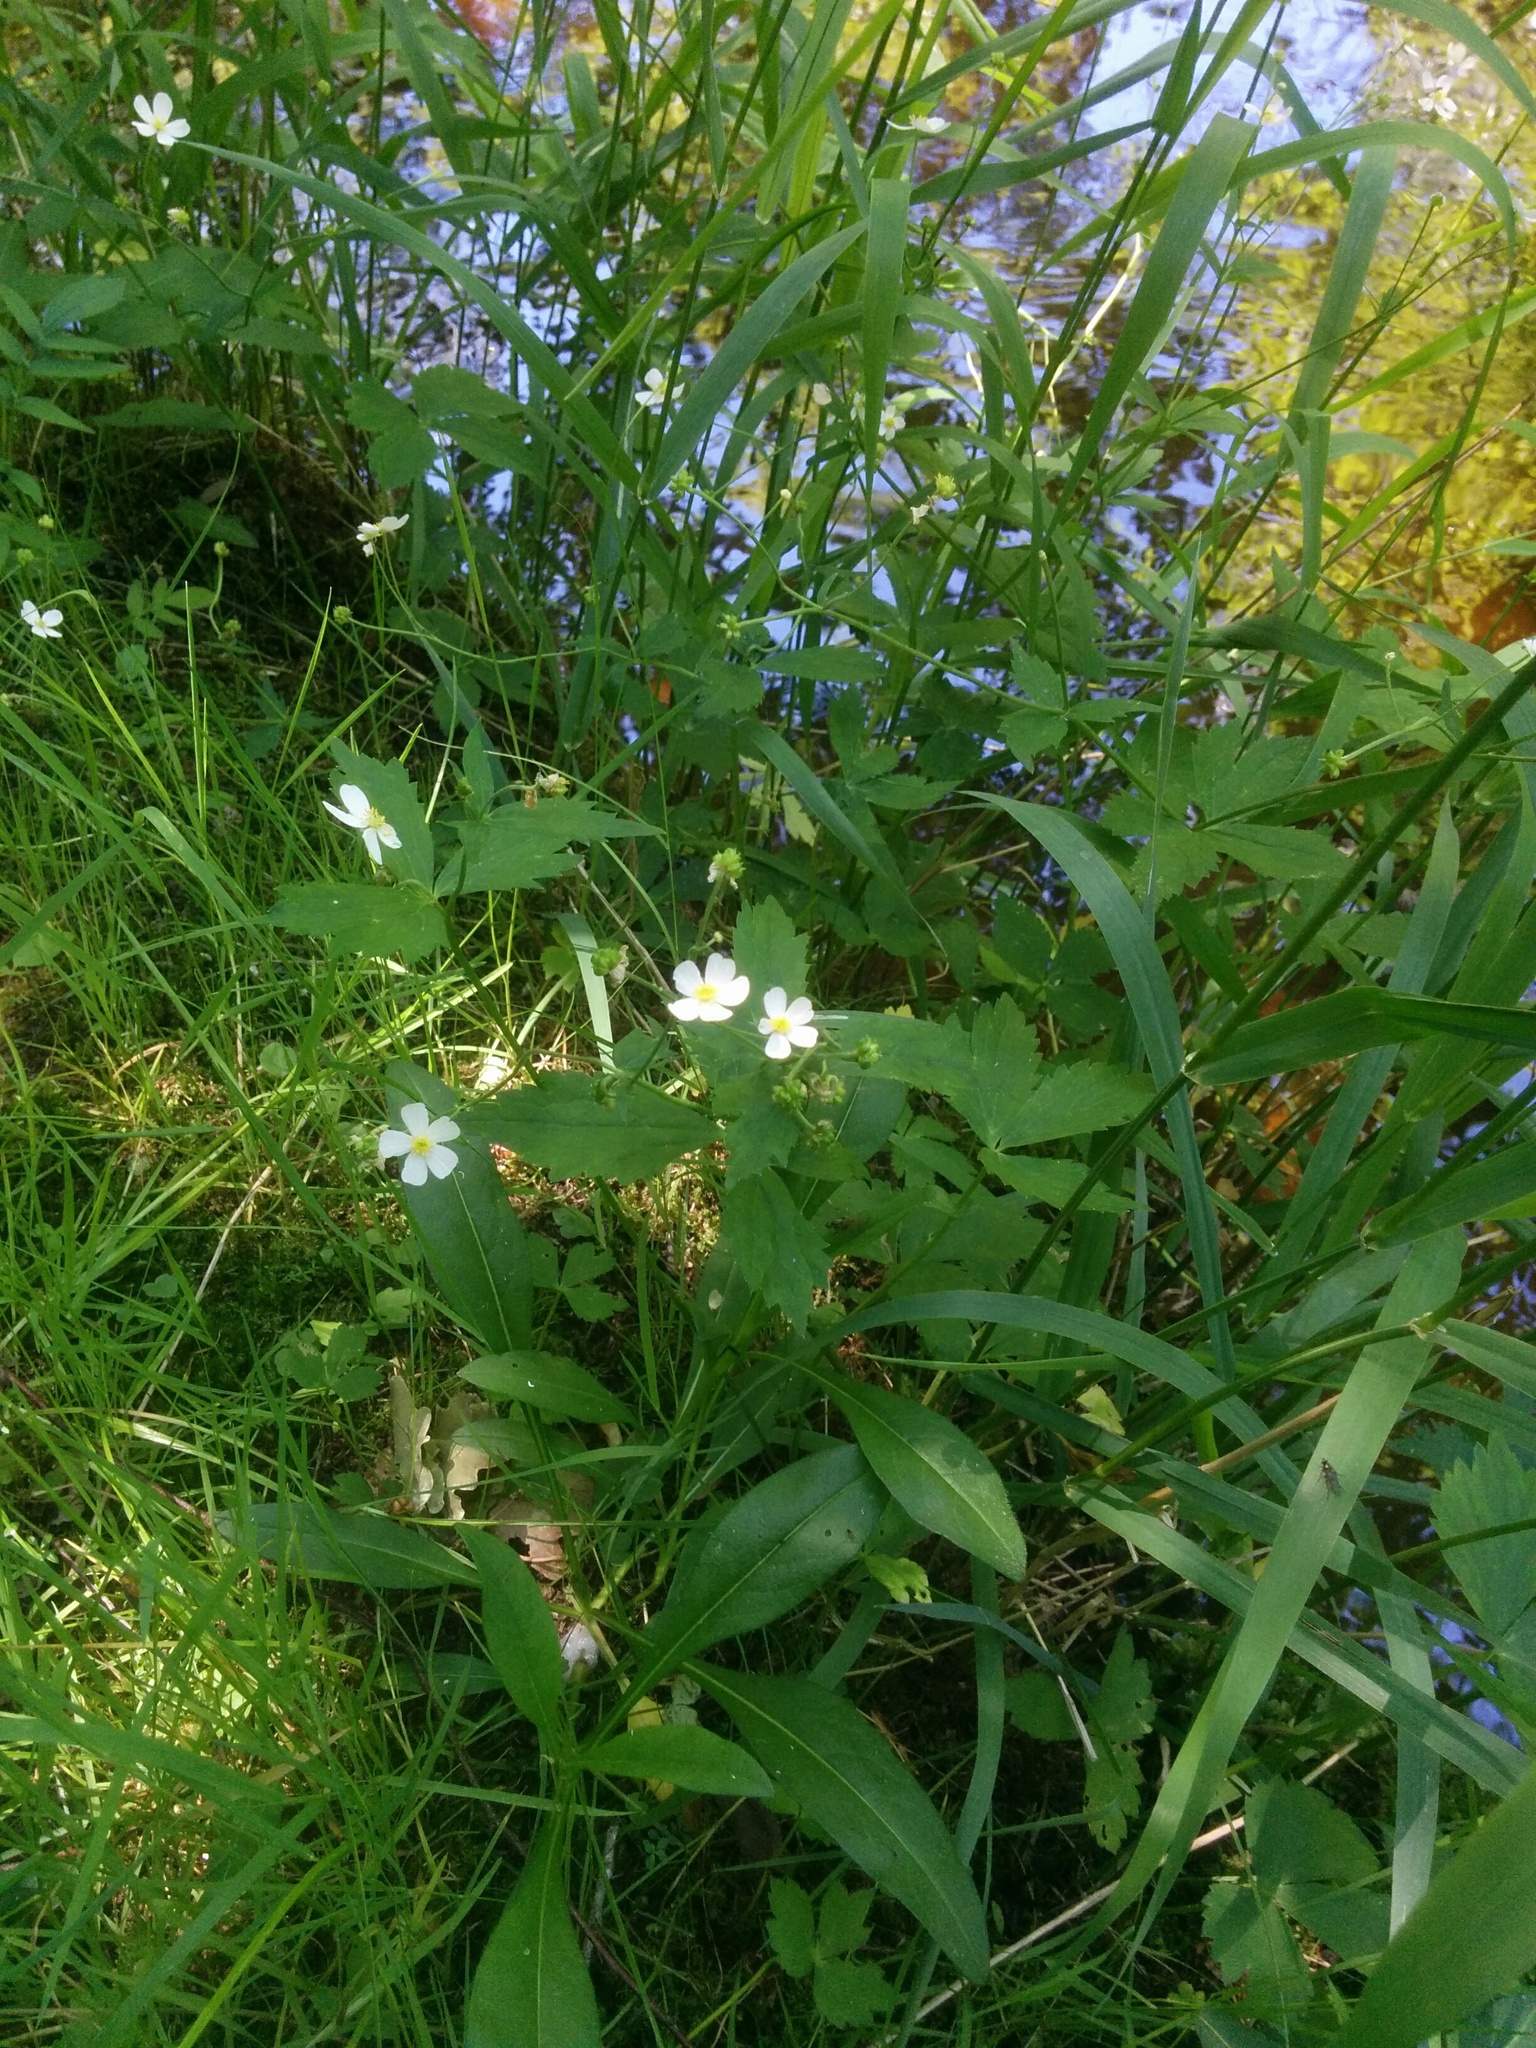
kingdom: Plantae
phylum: Tracheophyta
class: Magnoliopsida
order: Ranunculales
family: Ranunculaceae
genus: Ranunculus
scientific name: Ranunculus aconitifolius
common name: Aconite-leaved buttercup
